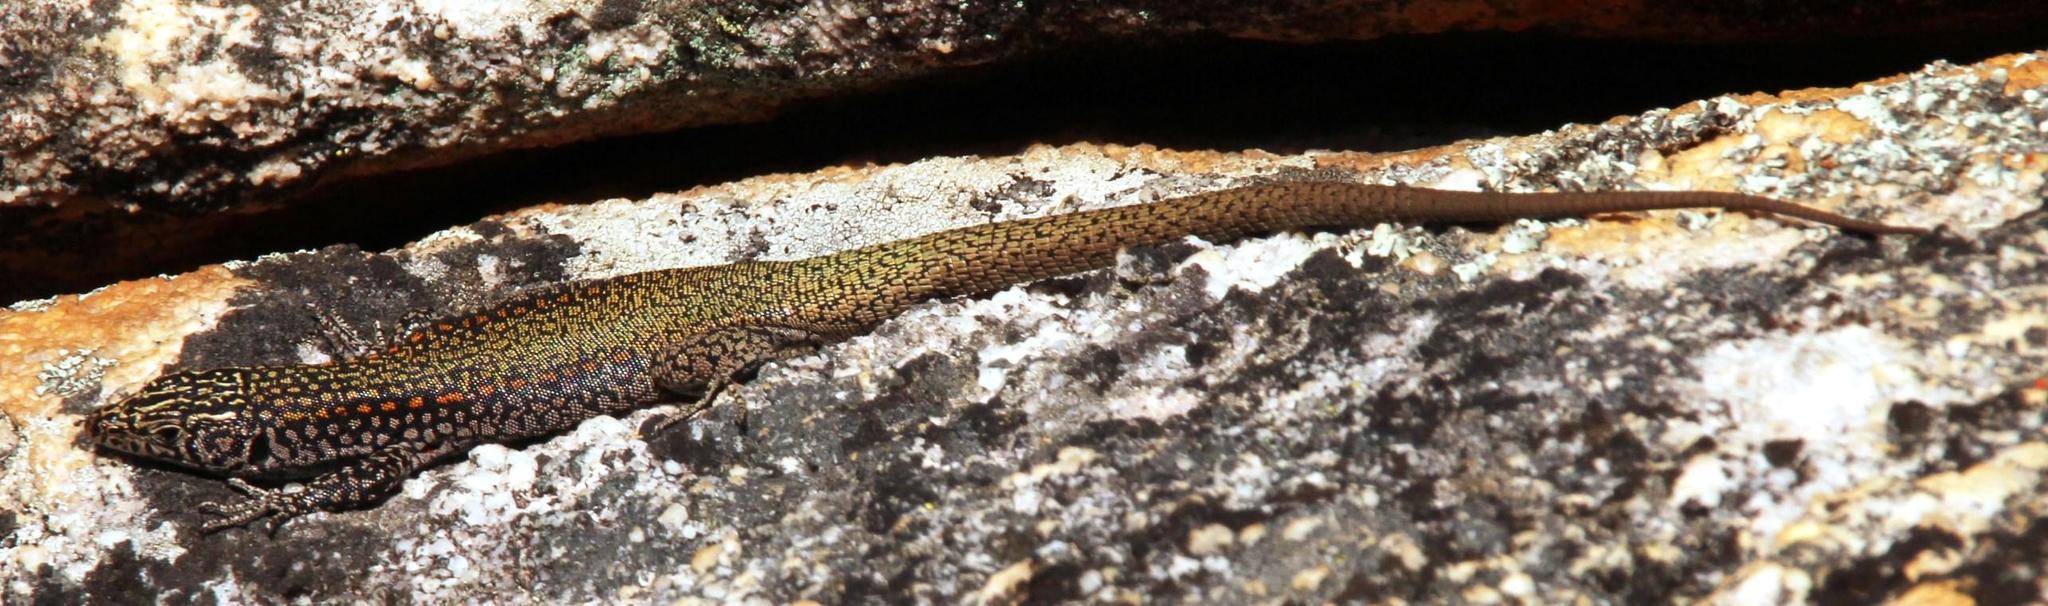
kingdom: Animalia
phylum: Chordata
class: Squamata
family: Lacertidae
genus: Australolacerta
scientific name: Australolacerta australis
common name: Southern rock lizard
